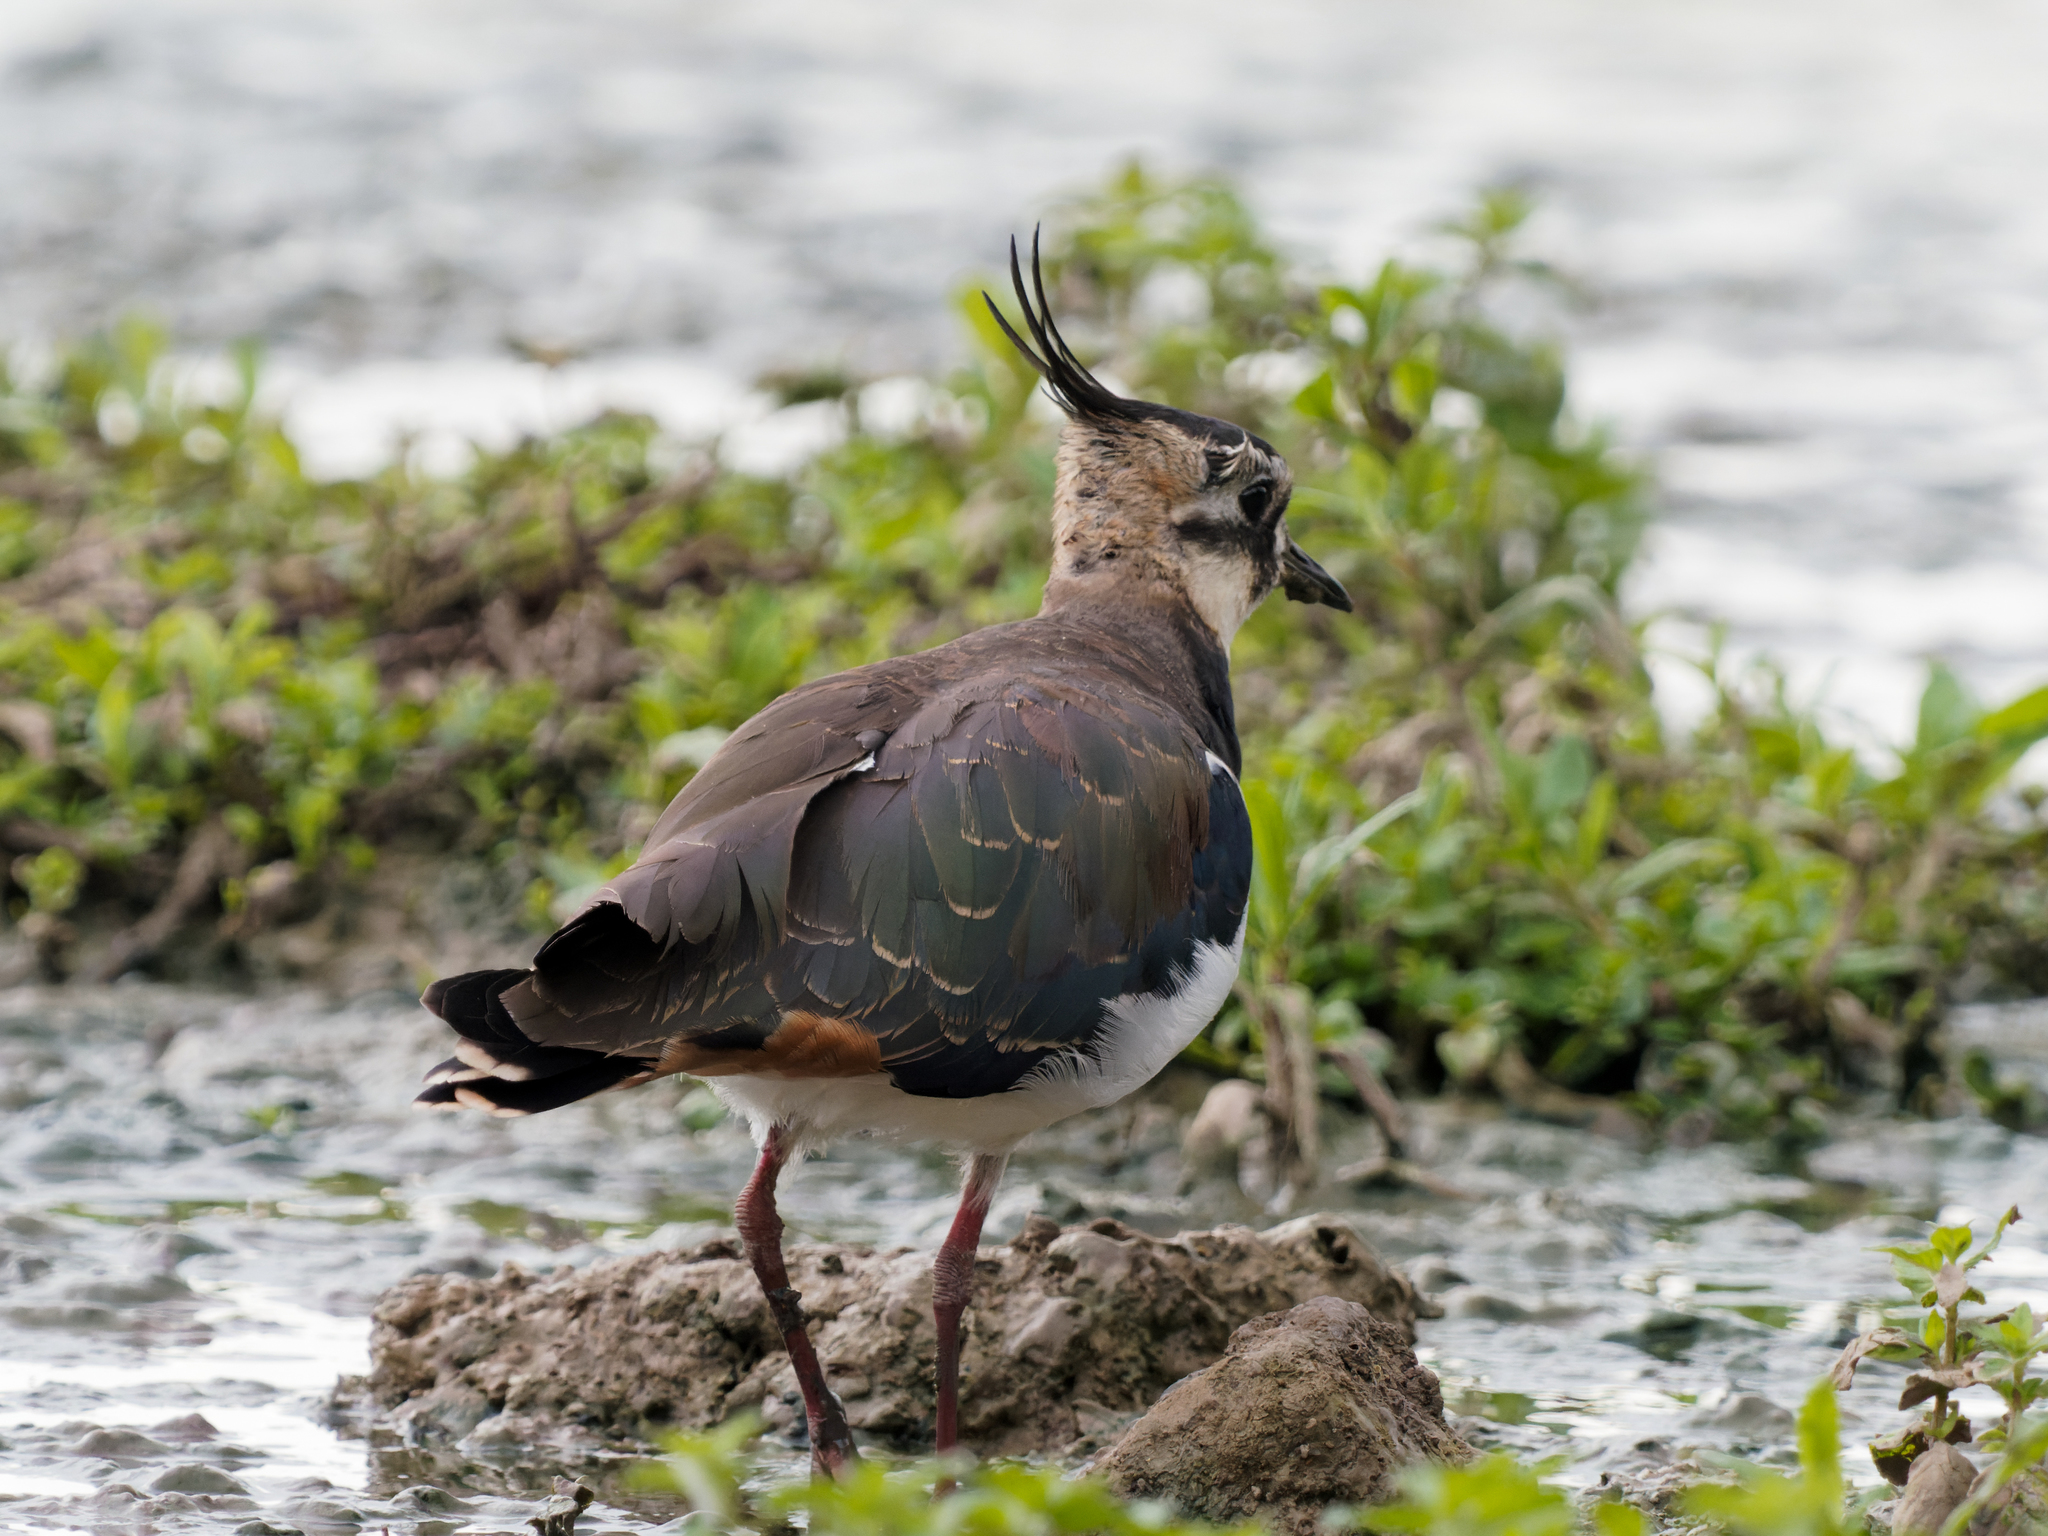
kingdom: Animalia
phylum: Chordata
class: Aves
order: Charadriiformes
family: Charadriidae
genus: Vanellus
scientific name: Vanellus vanellus
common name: Northern lapwing
